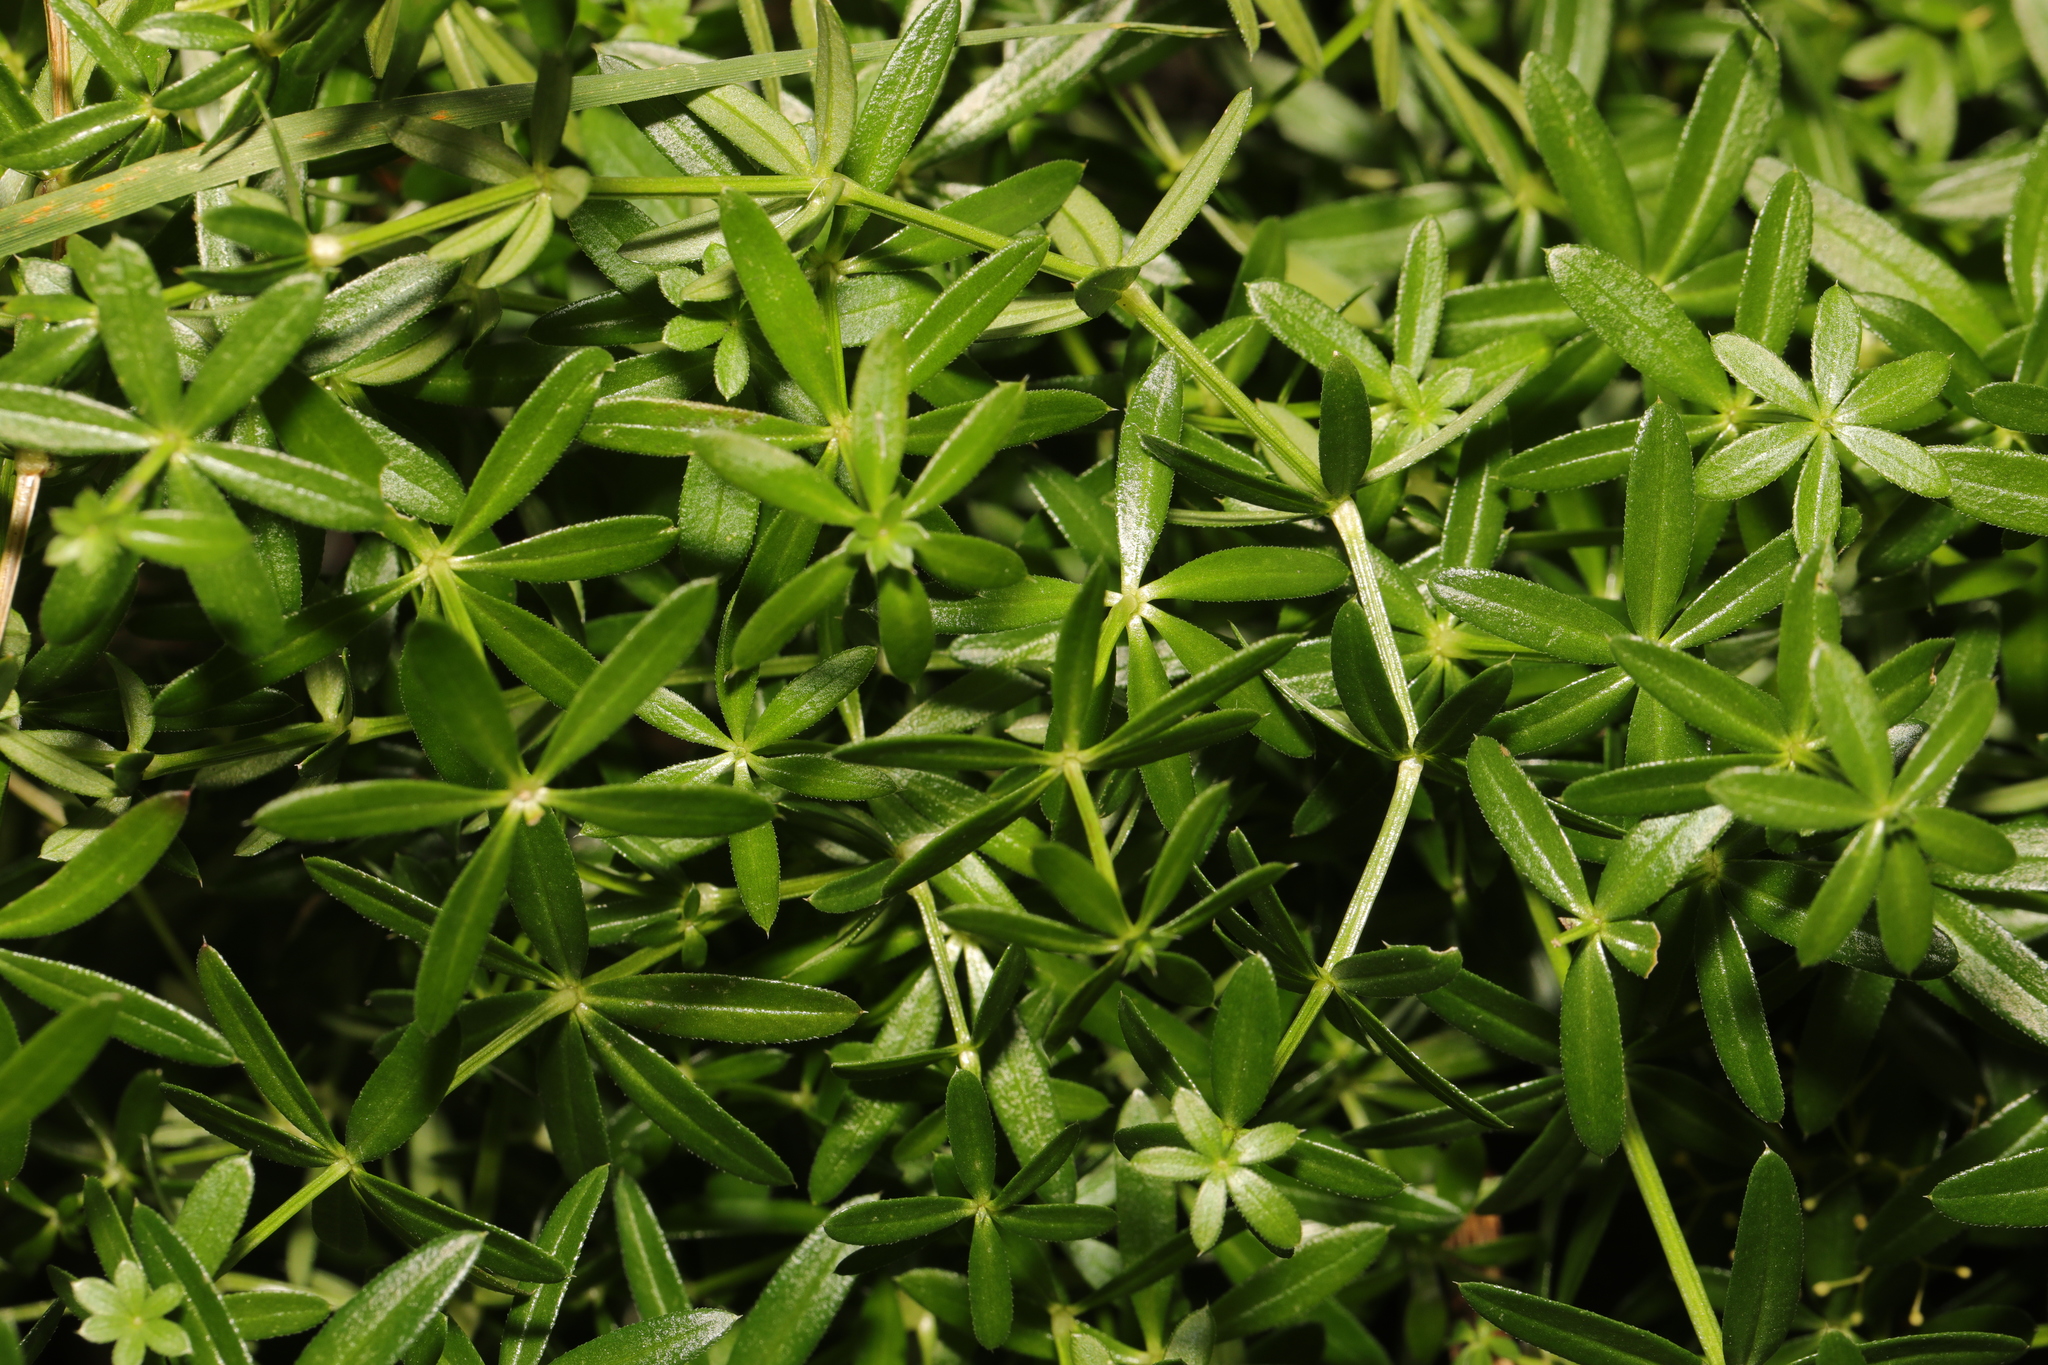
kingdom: Plantae
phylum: Tracheophyta
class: Magnoliopsida
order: Gentianales
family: Rubiaceae
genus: Rubia
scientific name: Rubia peregrina
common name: Wild madder
